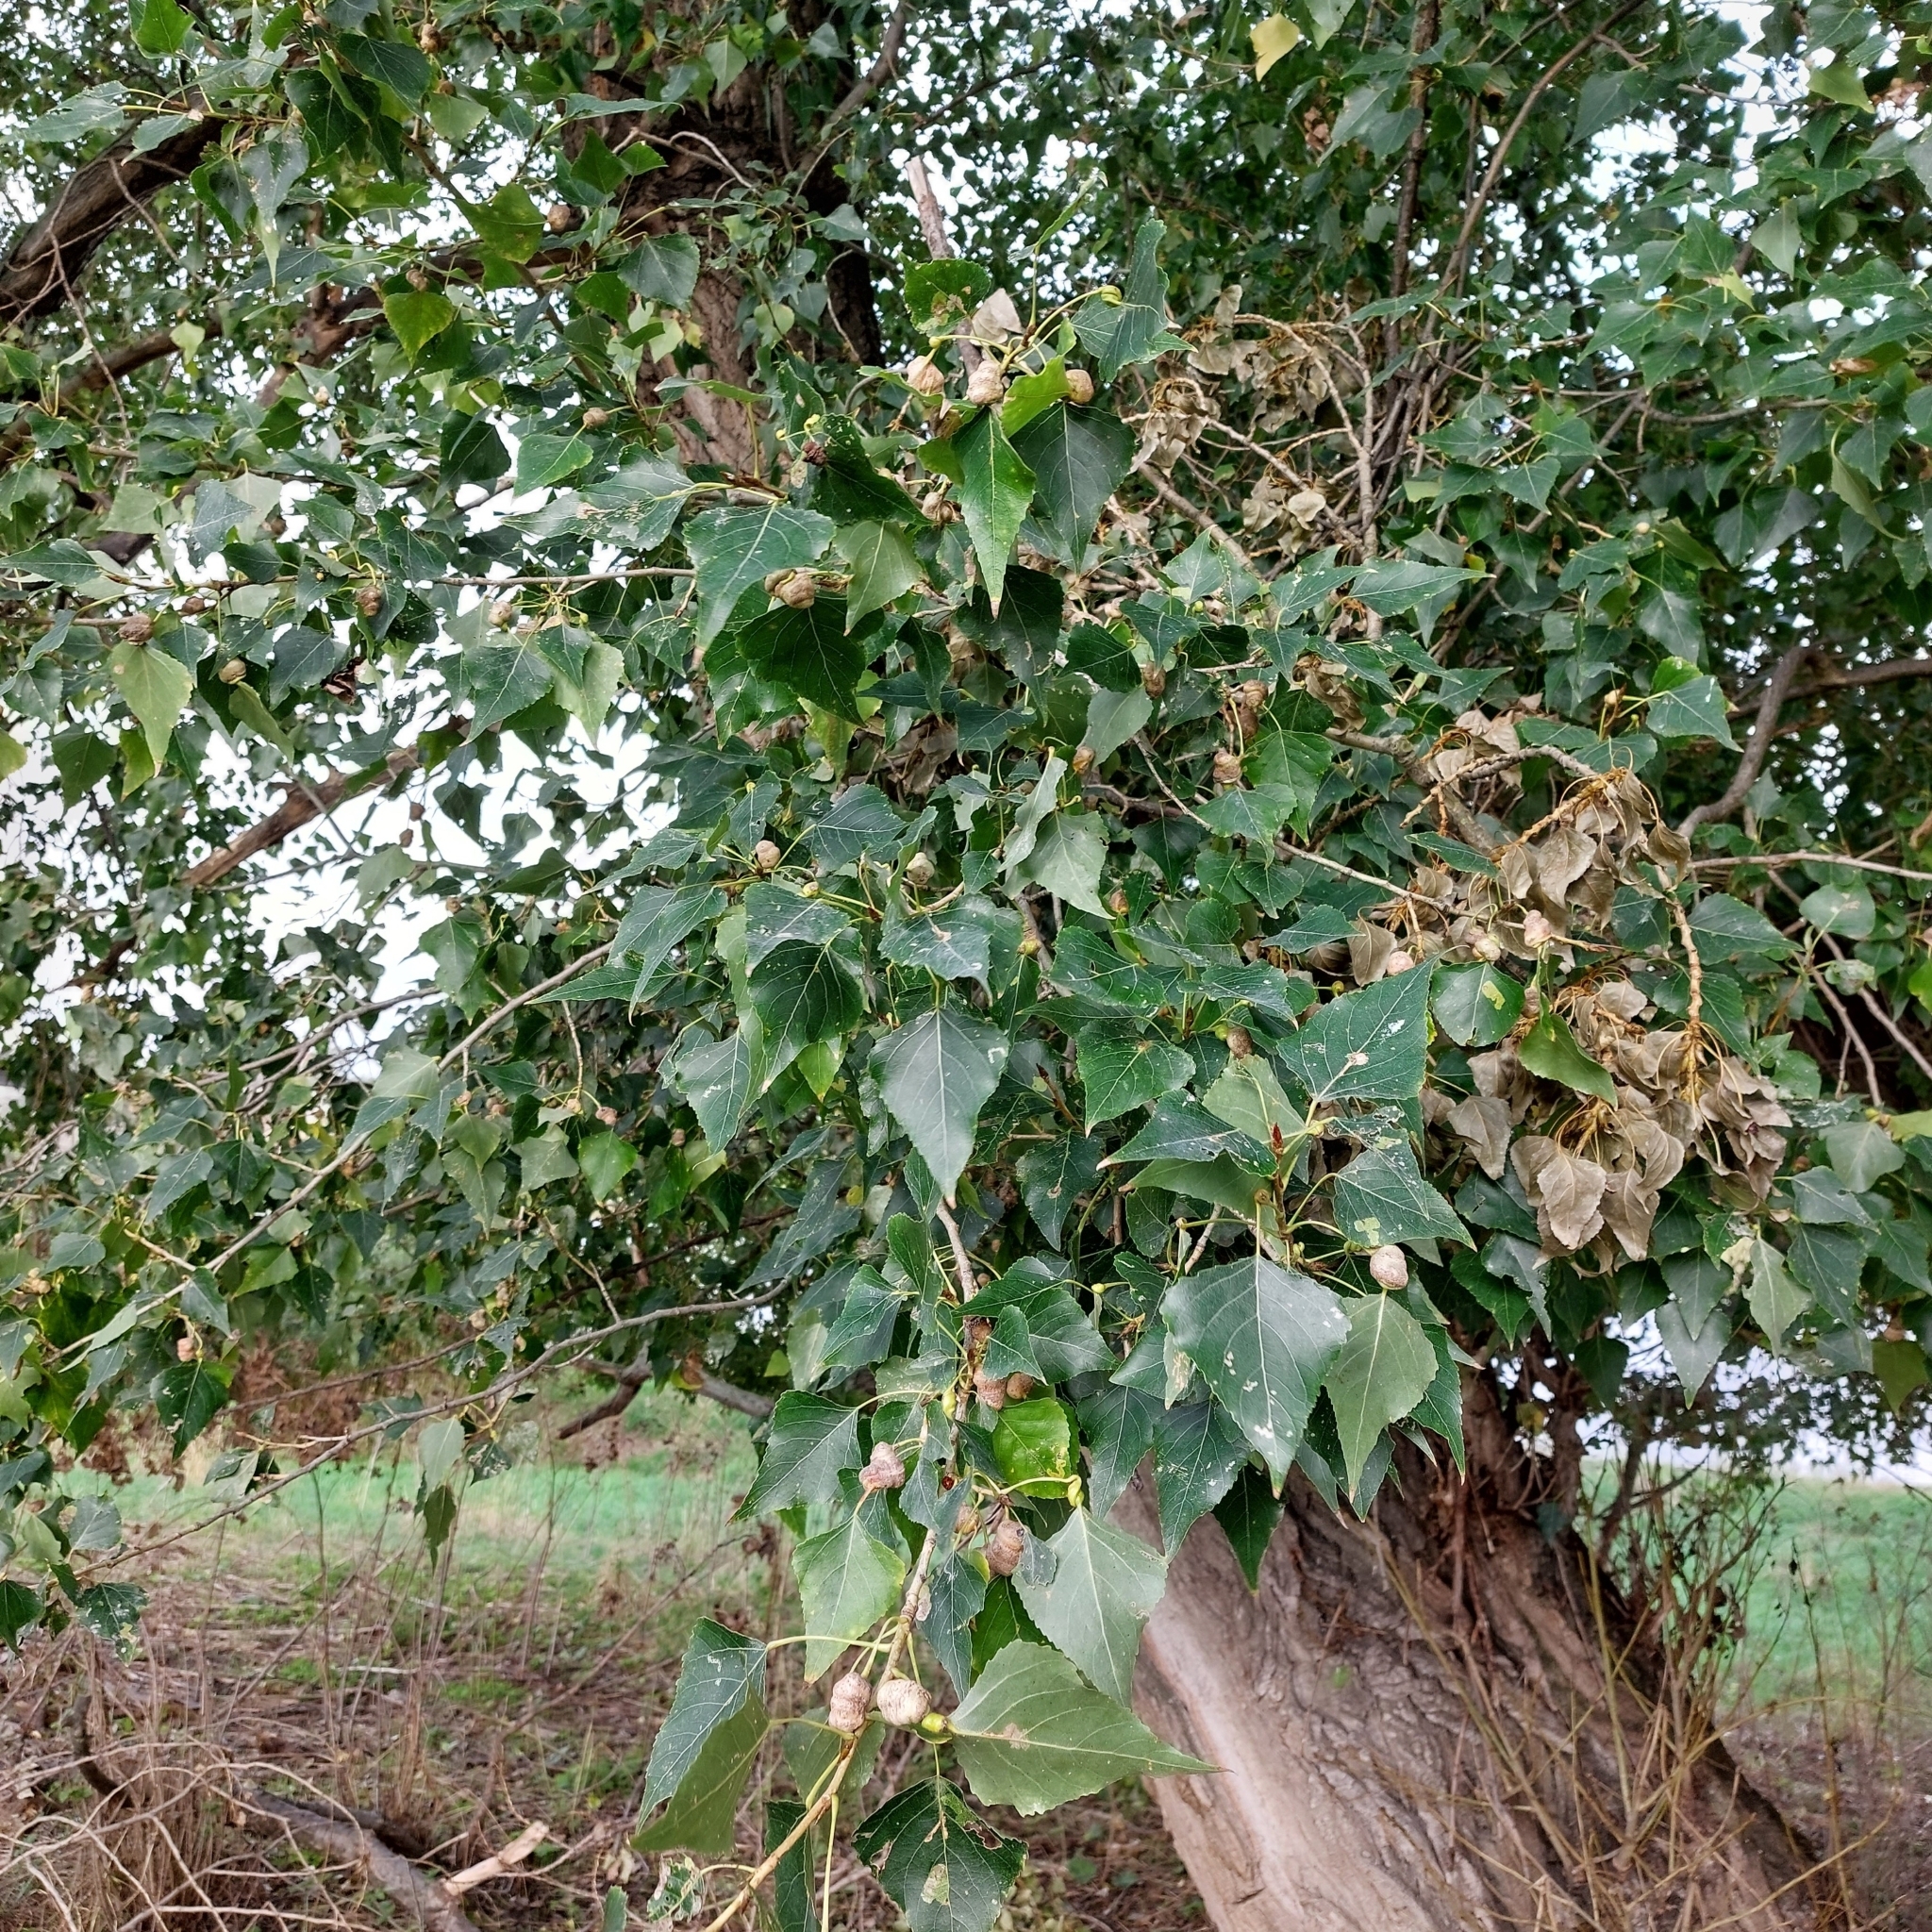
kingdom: Plantae
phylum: Tracheophyta
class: Magnoliopsida
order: Malpighiales
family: Salicaceae
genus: Populus
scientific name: Populus nigra
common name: Black poplar
